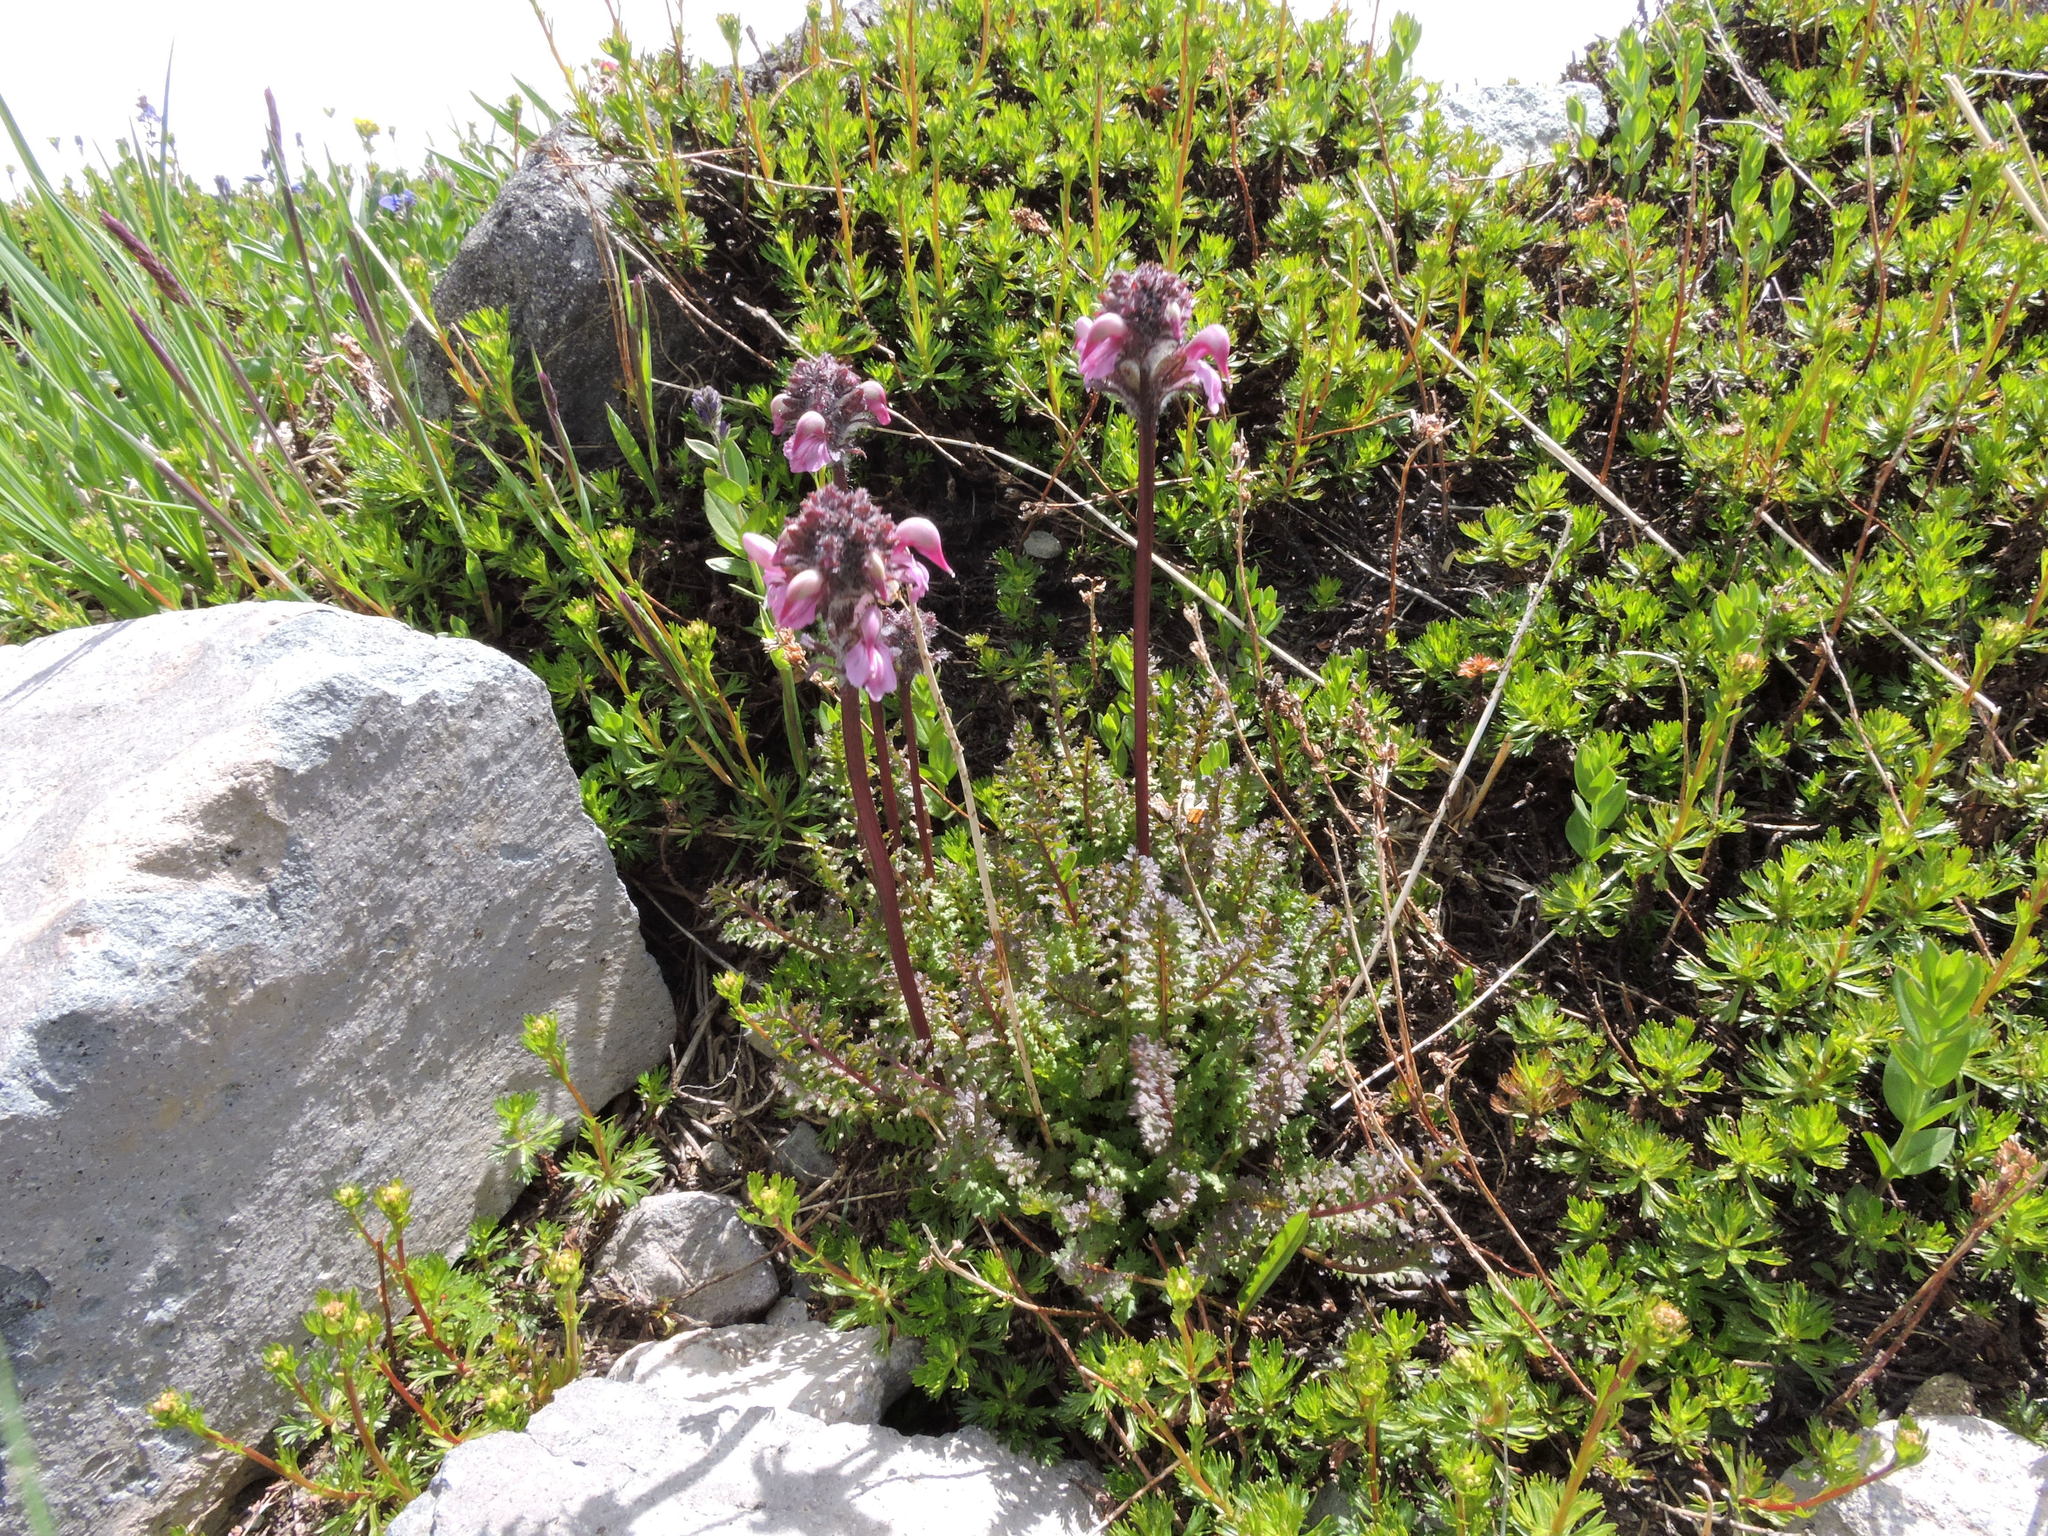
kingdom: Plantae
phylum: Tracheophyta
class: Magnoliopsida
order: Lamiales
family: Orobanchaceae
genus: Pedicularis
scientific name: Pedicularis ornithorhynchos
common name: Bird's-beak lousewort
